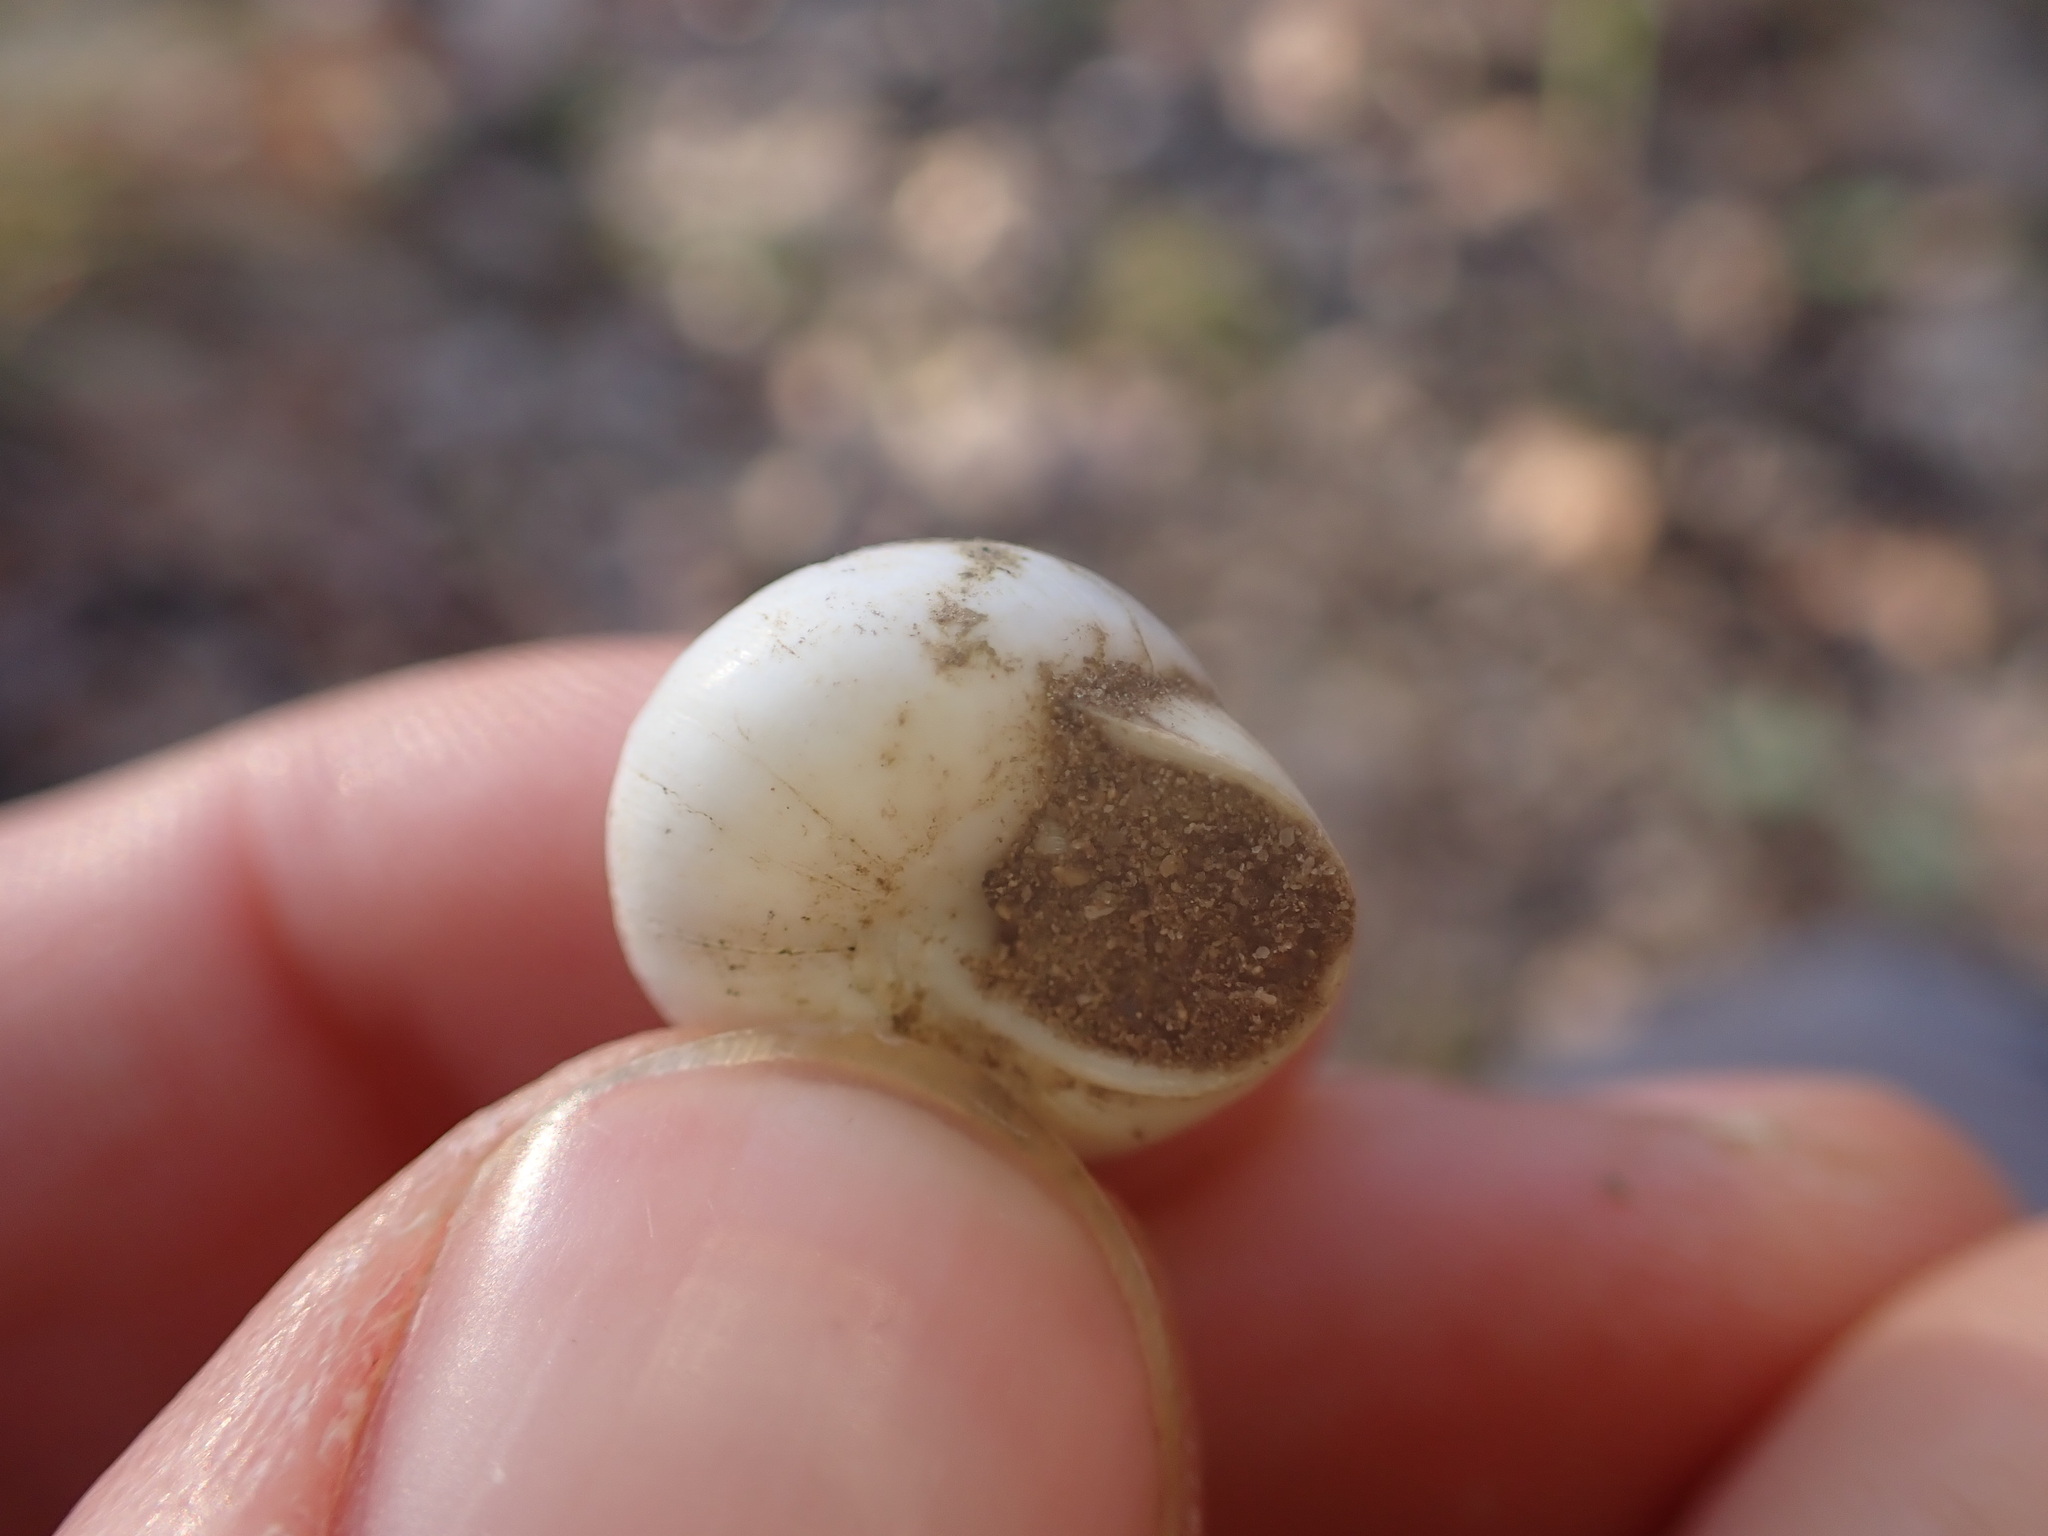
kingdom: Animalia
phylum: Mollusca
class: Gastropoda
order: Stylommatophora
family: Sphincterochilidae
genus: Sphincterochila
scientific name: Sphincterochila candidissima
